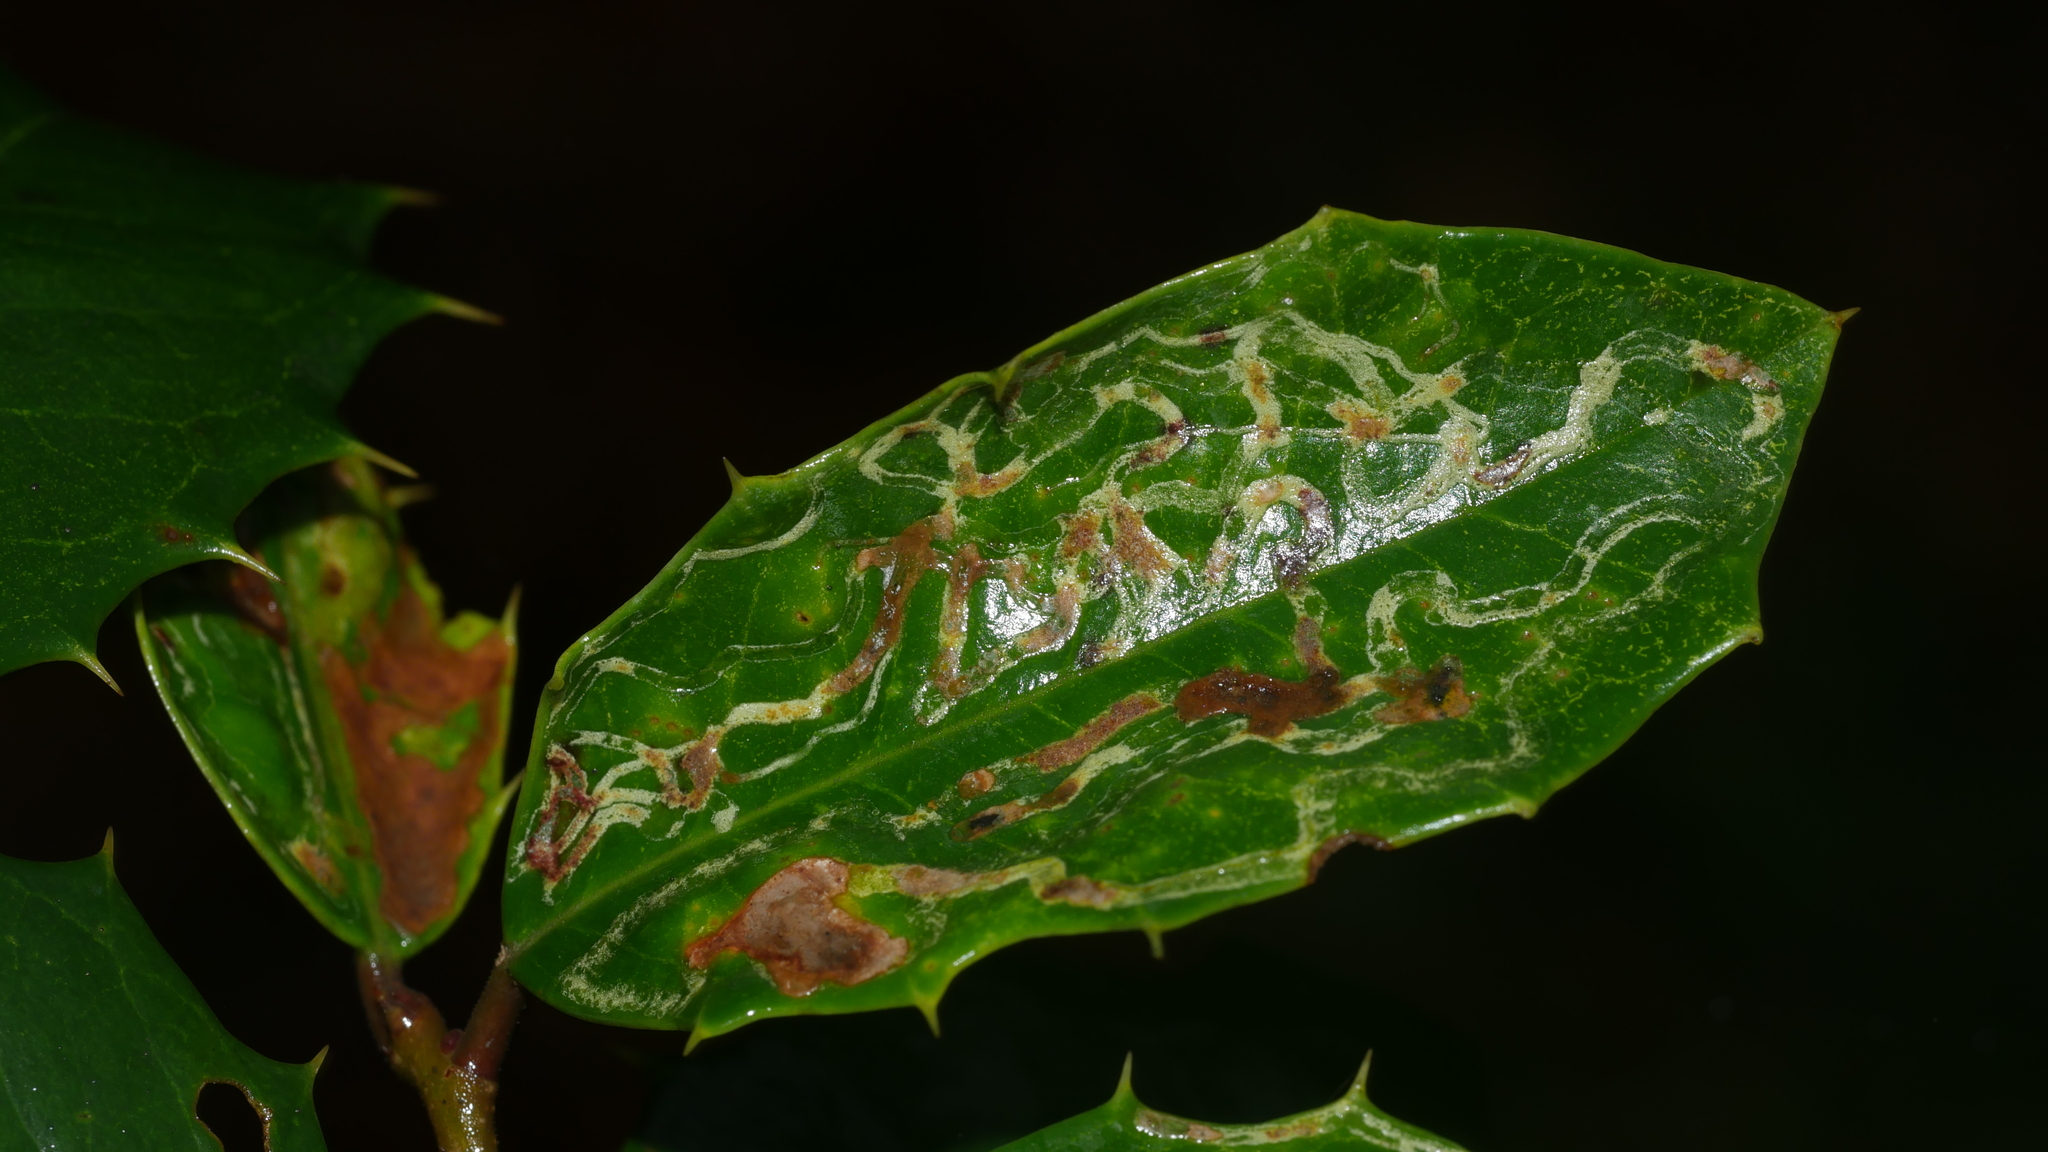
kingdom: Animalia
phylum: Arthropoda
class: Insecta
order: Diptera
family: Agromyzidae
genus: Phytomyza
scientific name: Phytomyza opacae
